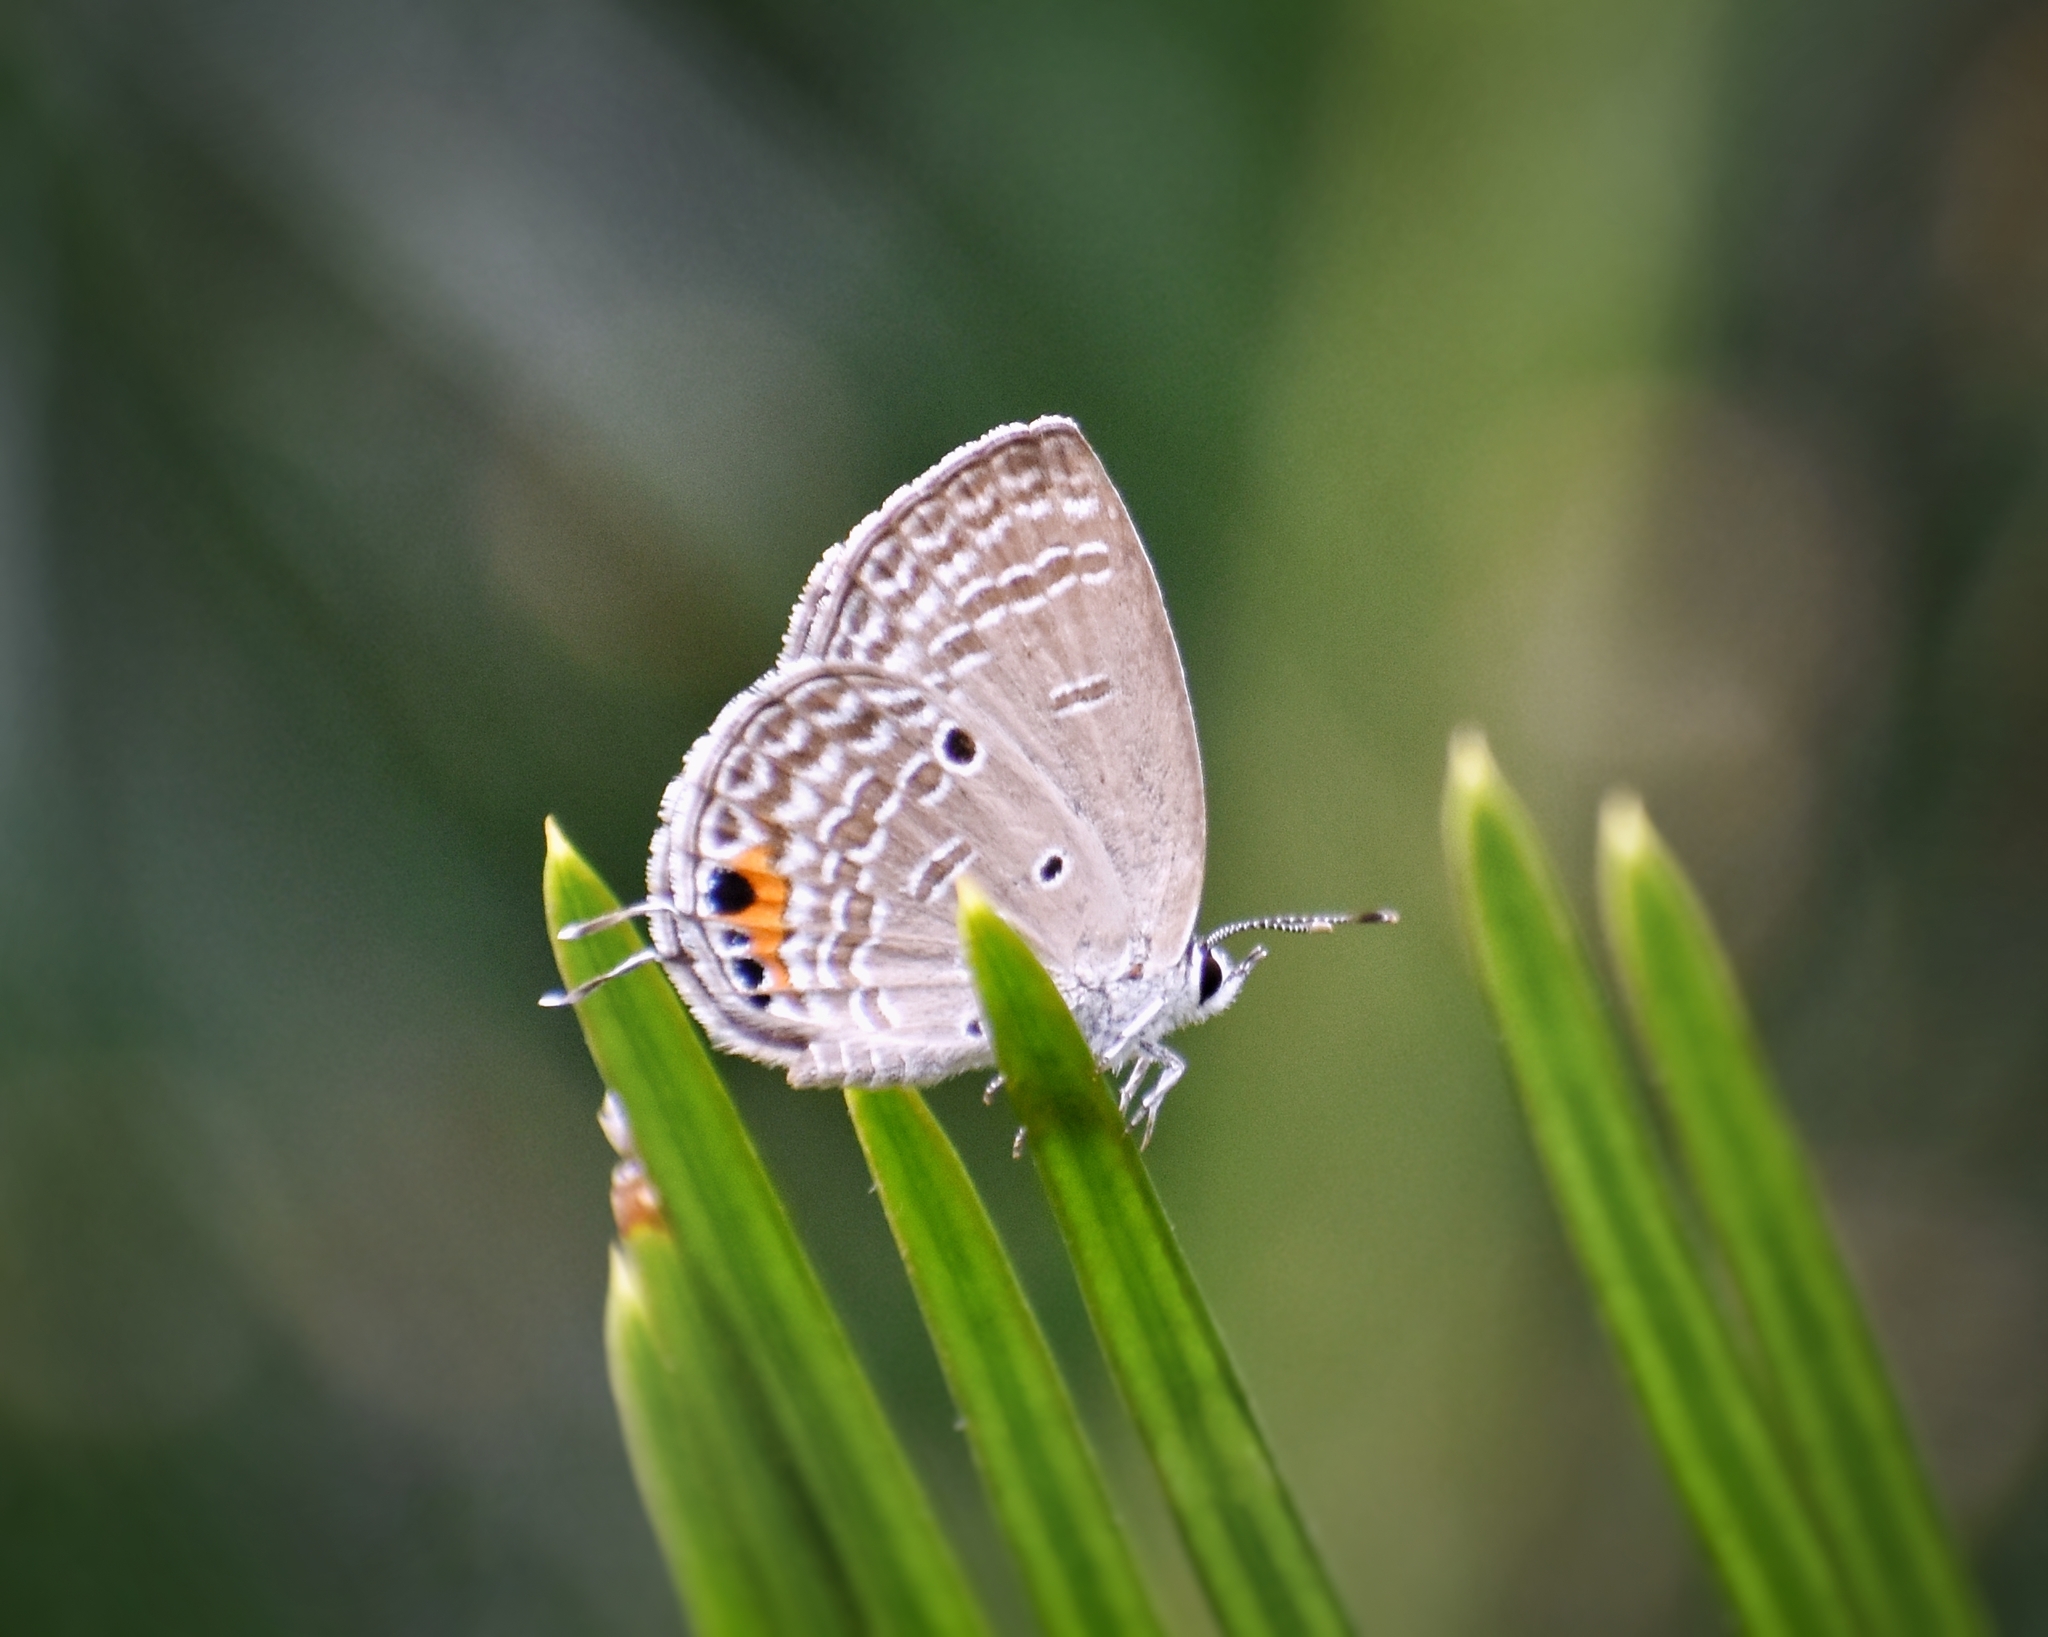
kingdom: Animalia
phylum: Arthropoda
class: Insecta
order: Lepidoptera
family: Lycaenidae
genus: Luthrodes
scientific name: Luthrodes pandava
